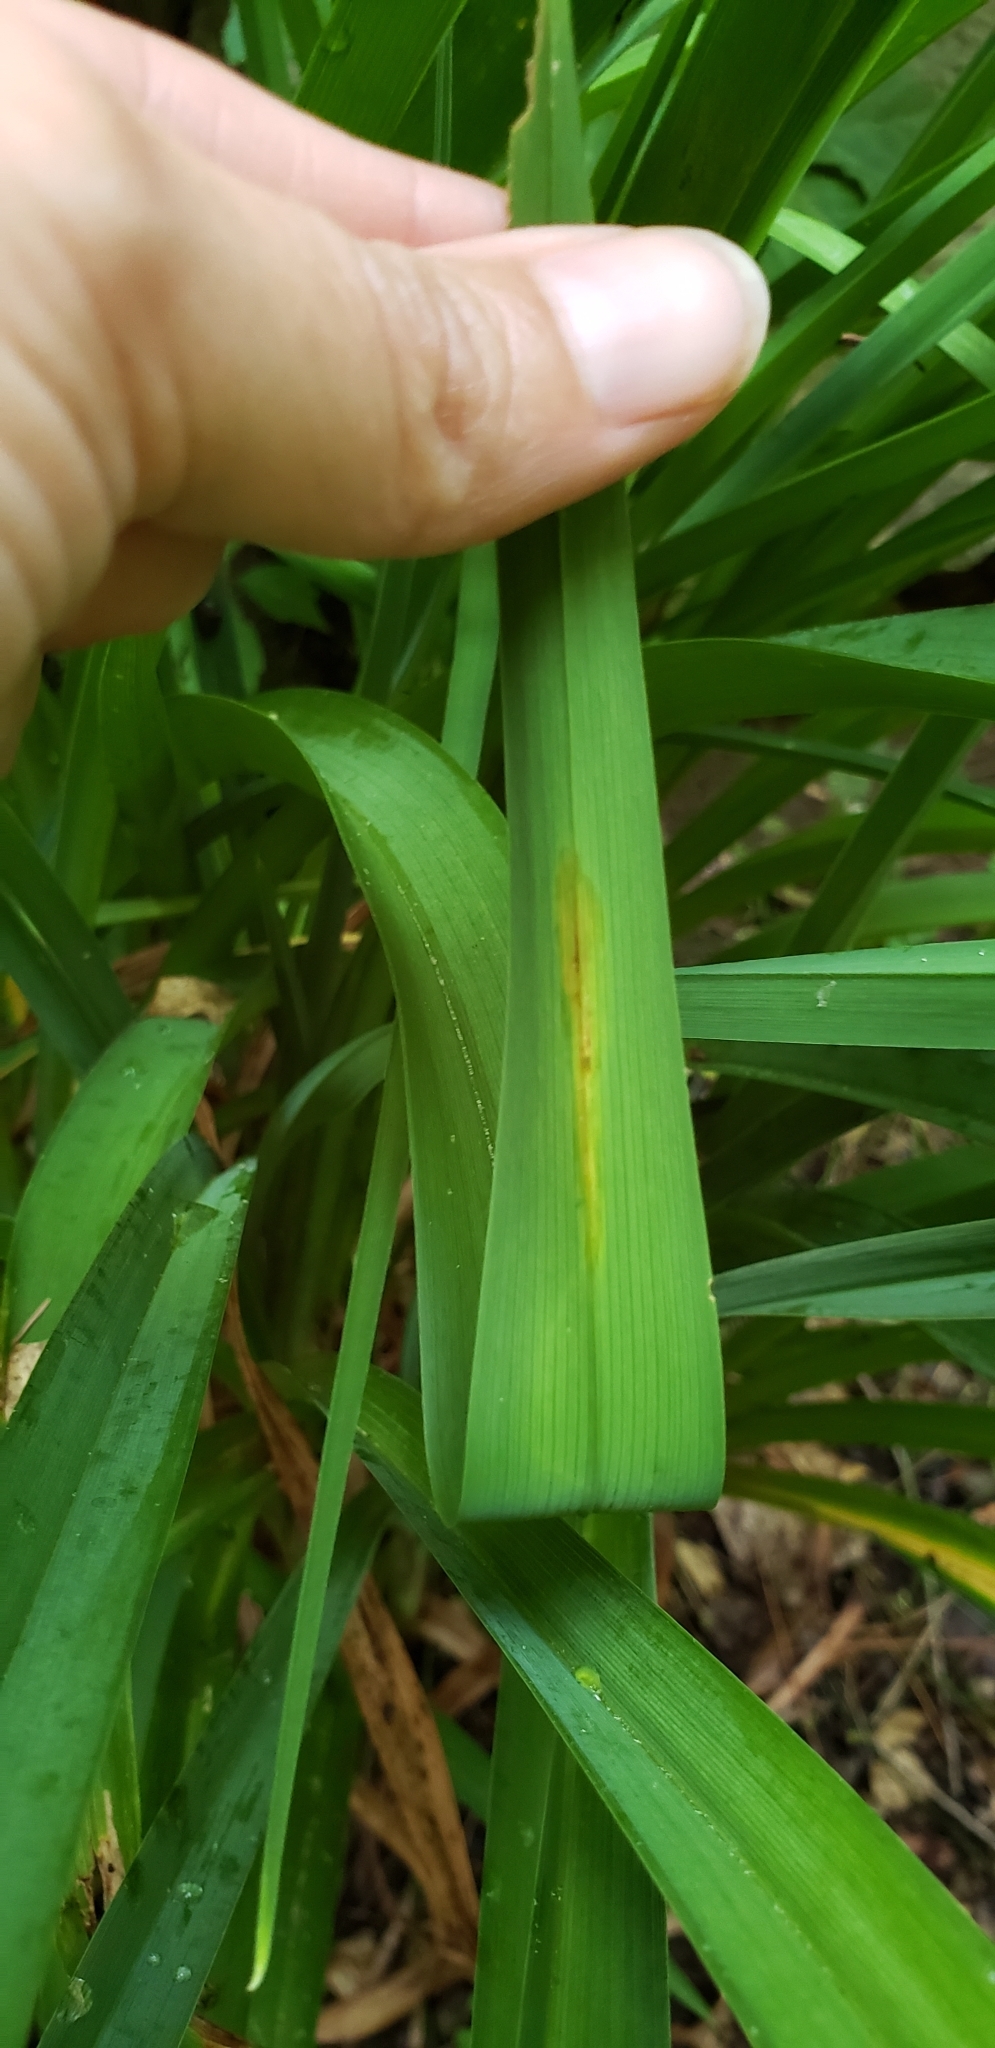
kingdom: Animalia
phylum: Arthropoda
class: Insecta
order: Diptera
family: Agromyzidae
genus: Ophiomyia
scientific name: Ophiomyia kwansonis
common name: Daylily leafminer
